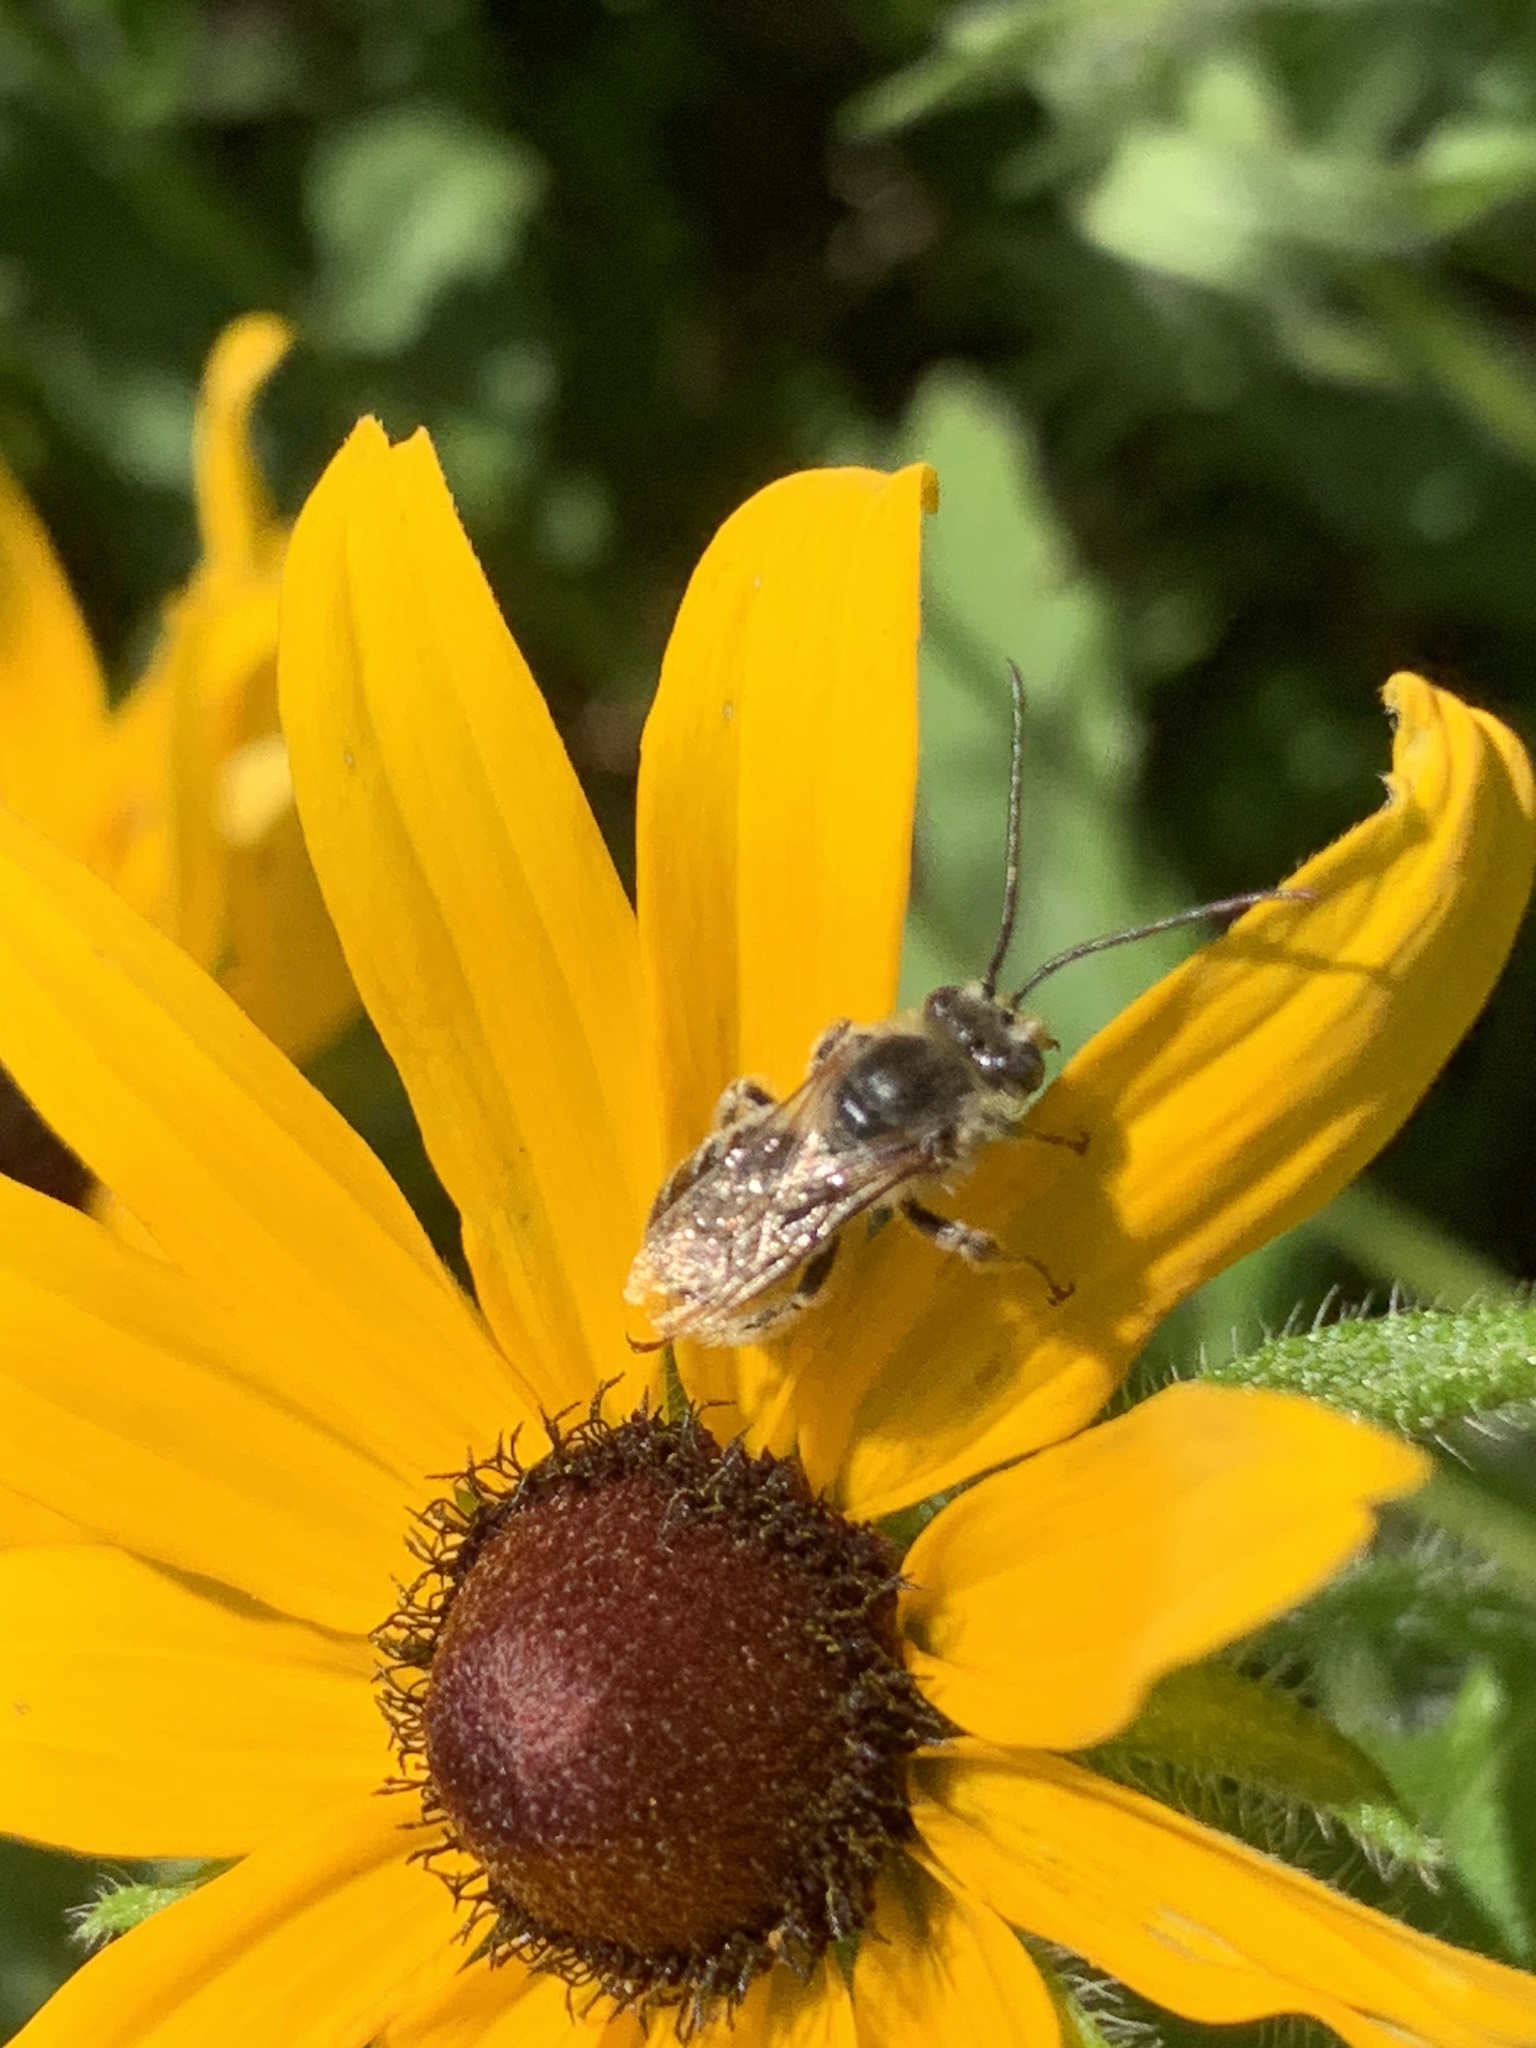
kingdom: Animalia
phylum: Arthropoda
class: Insecta
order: Hymenoptera
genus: Eumelissodes
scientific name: Eumelissodes
